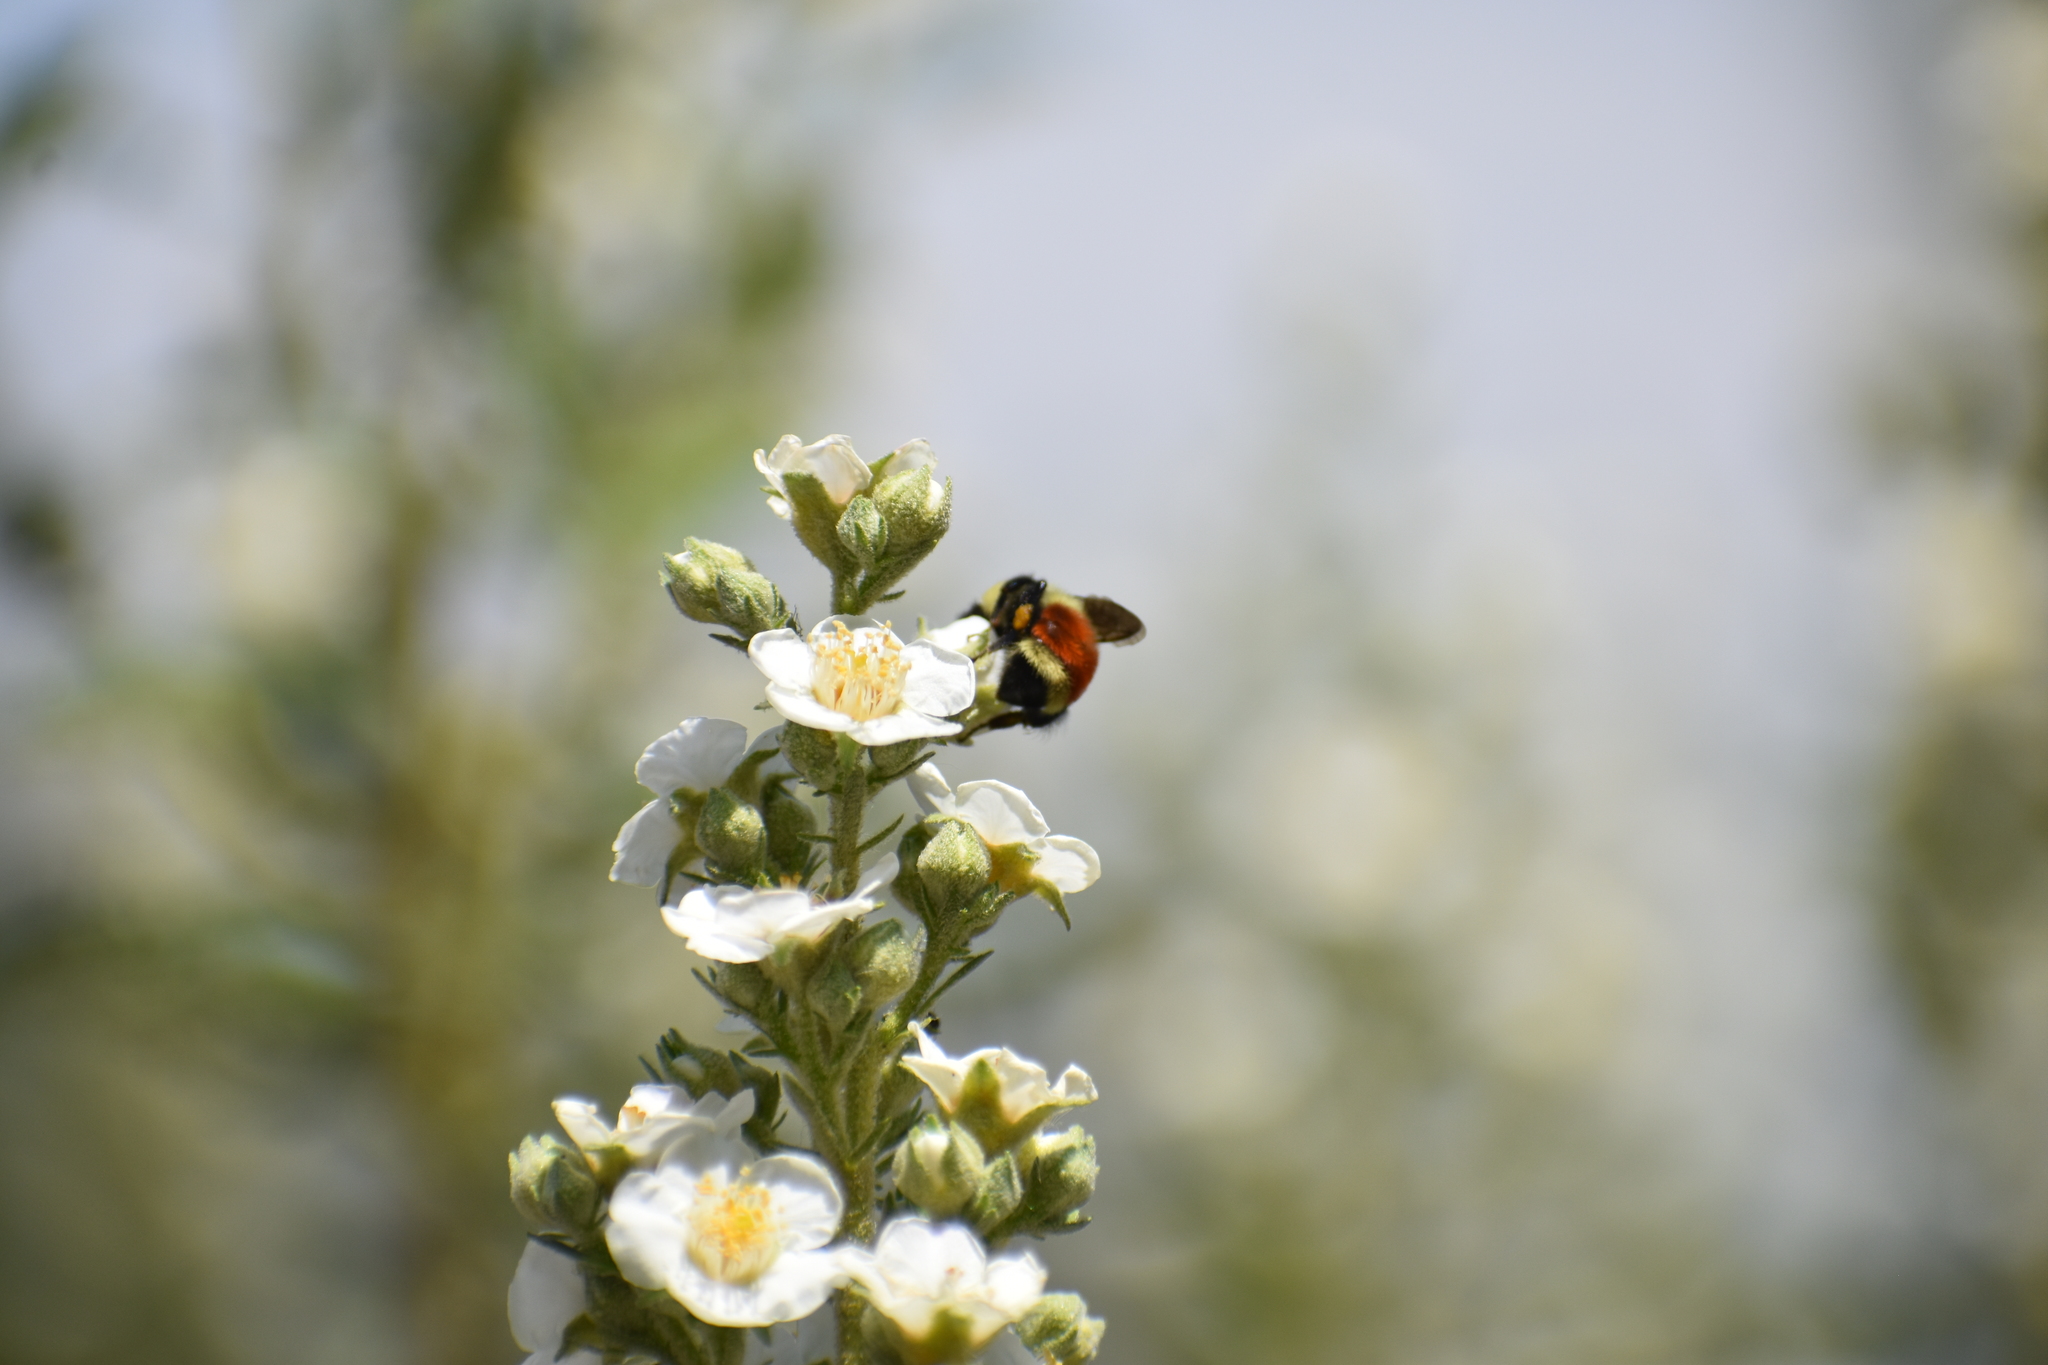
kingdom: Animalia
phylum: Arthropoda
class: Insecta
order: Hymenoptera
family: Apidae
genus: Bombus
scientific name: Bombus huntii
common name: Hunt bumble bee
